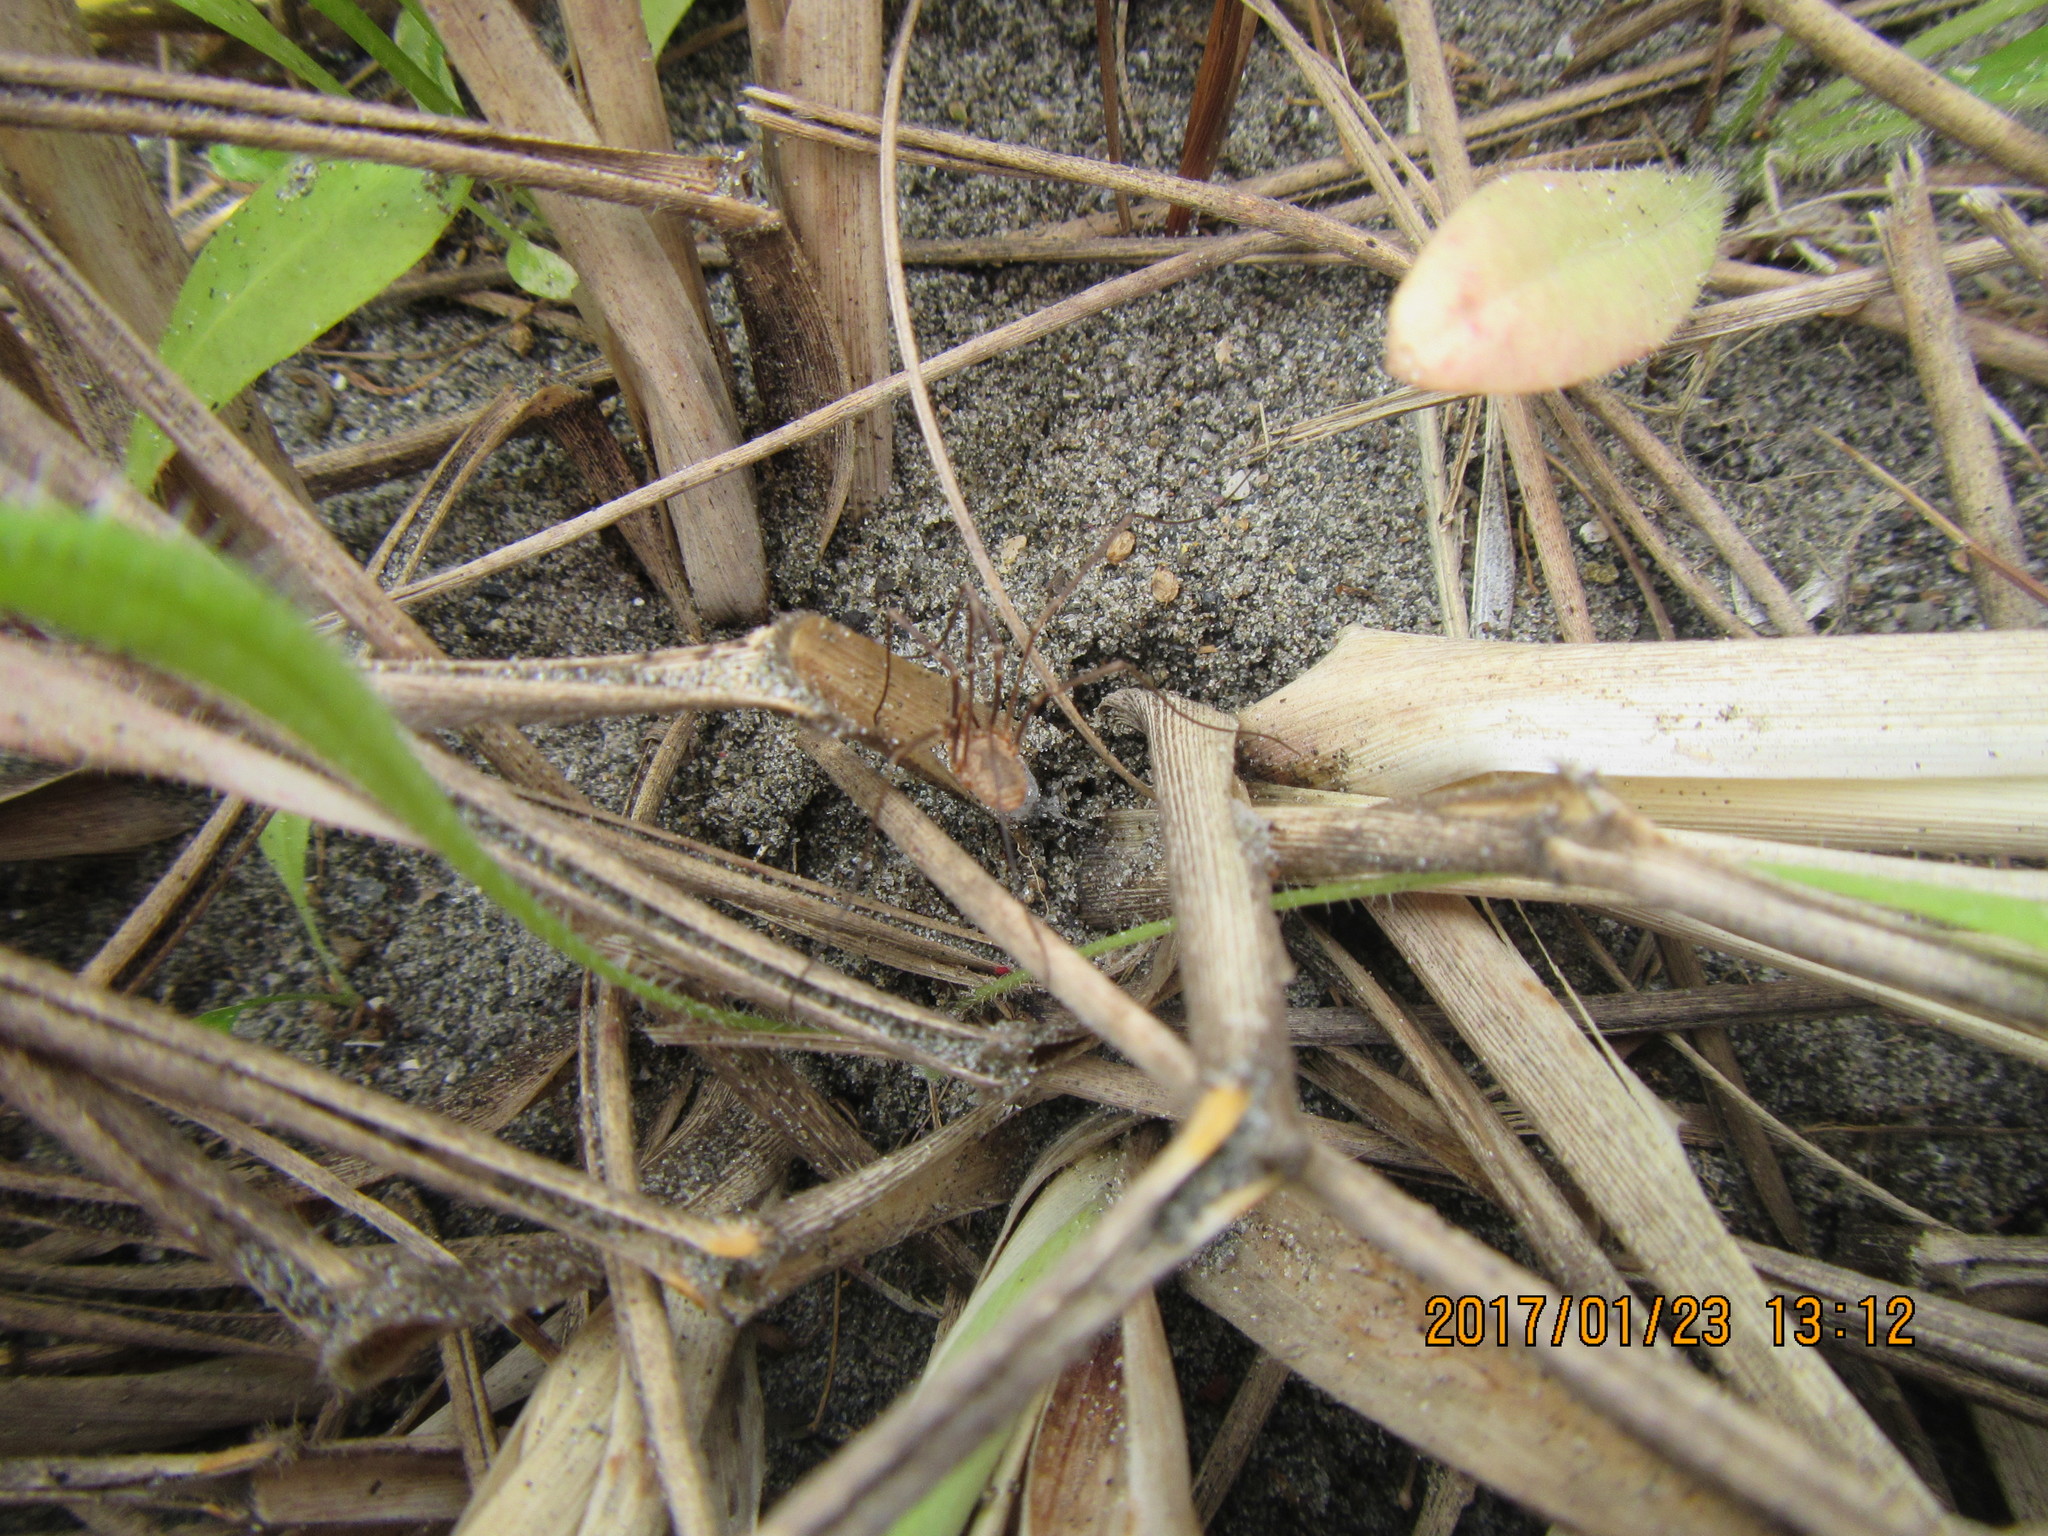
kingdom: Animalia
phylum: Arthropoda
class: Arachnida
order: Opiliones
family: Phalangiidae
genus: Phalangium
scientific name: Phalangium opilio
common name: Daddy longleg
